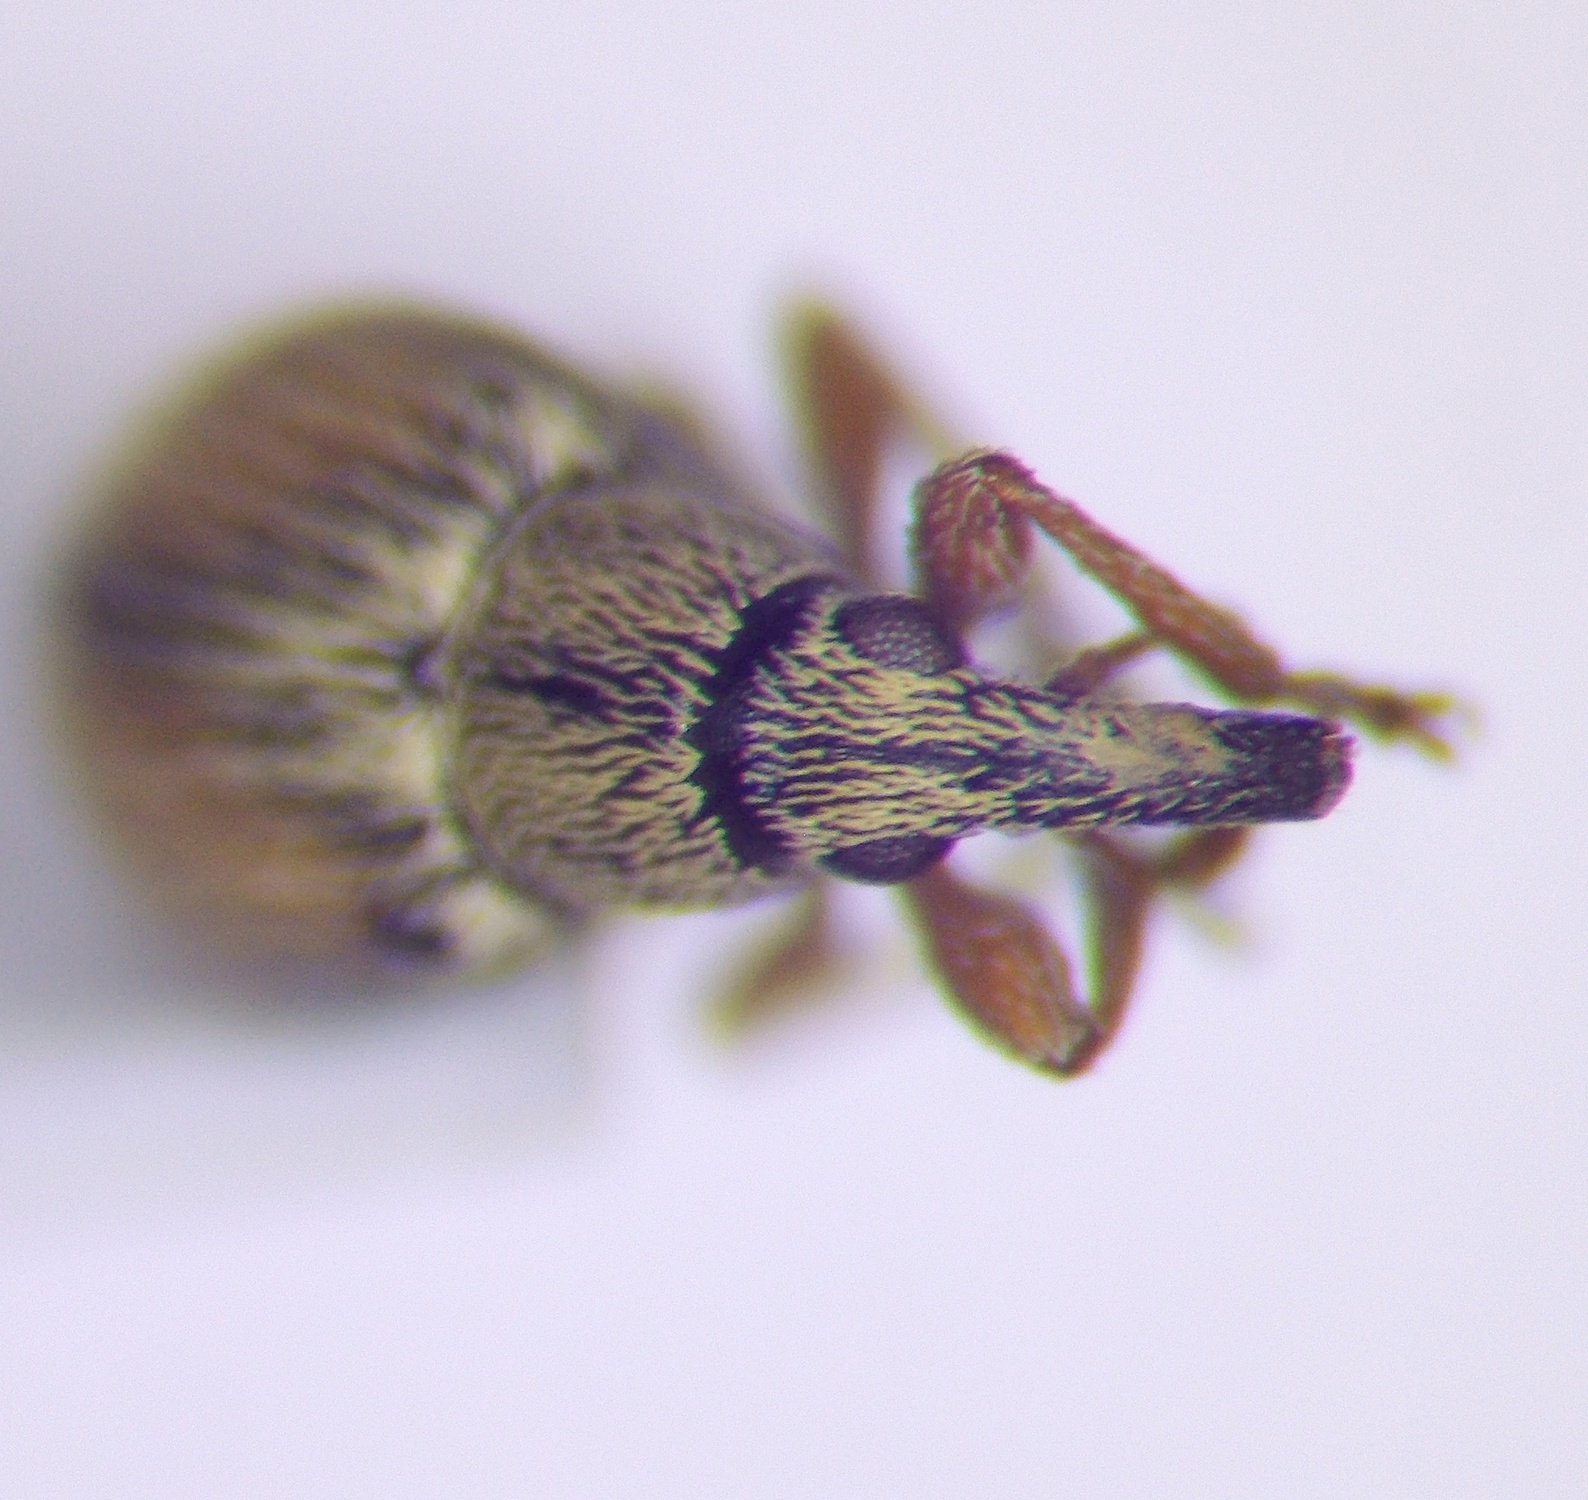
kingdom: Animalia
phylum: Arthropoda
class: Insecta
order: Coleoptera
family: Apionidae
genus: Malvapion
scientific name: Malvapion malvae
